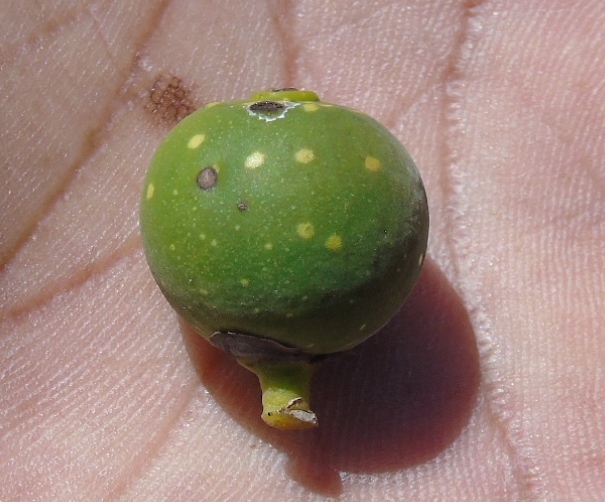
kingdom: Plantae
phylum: Tracheophyta
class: Magnoliopsida
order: Rosales
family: Moraceae
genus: Ficus
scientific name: Ficus crocata
